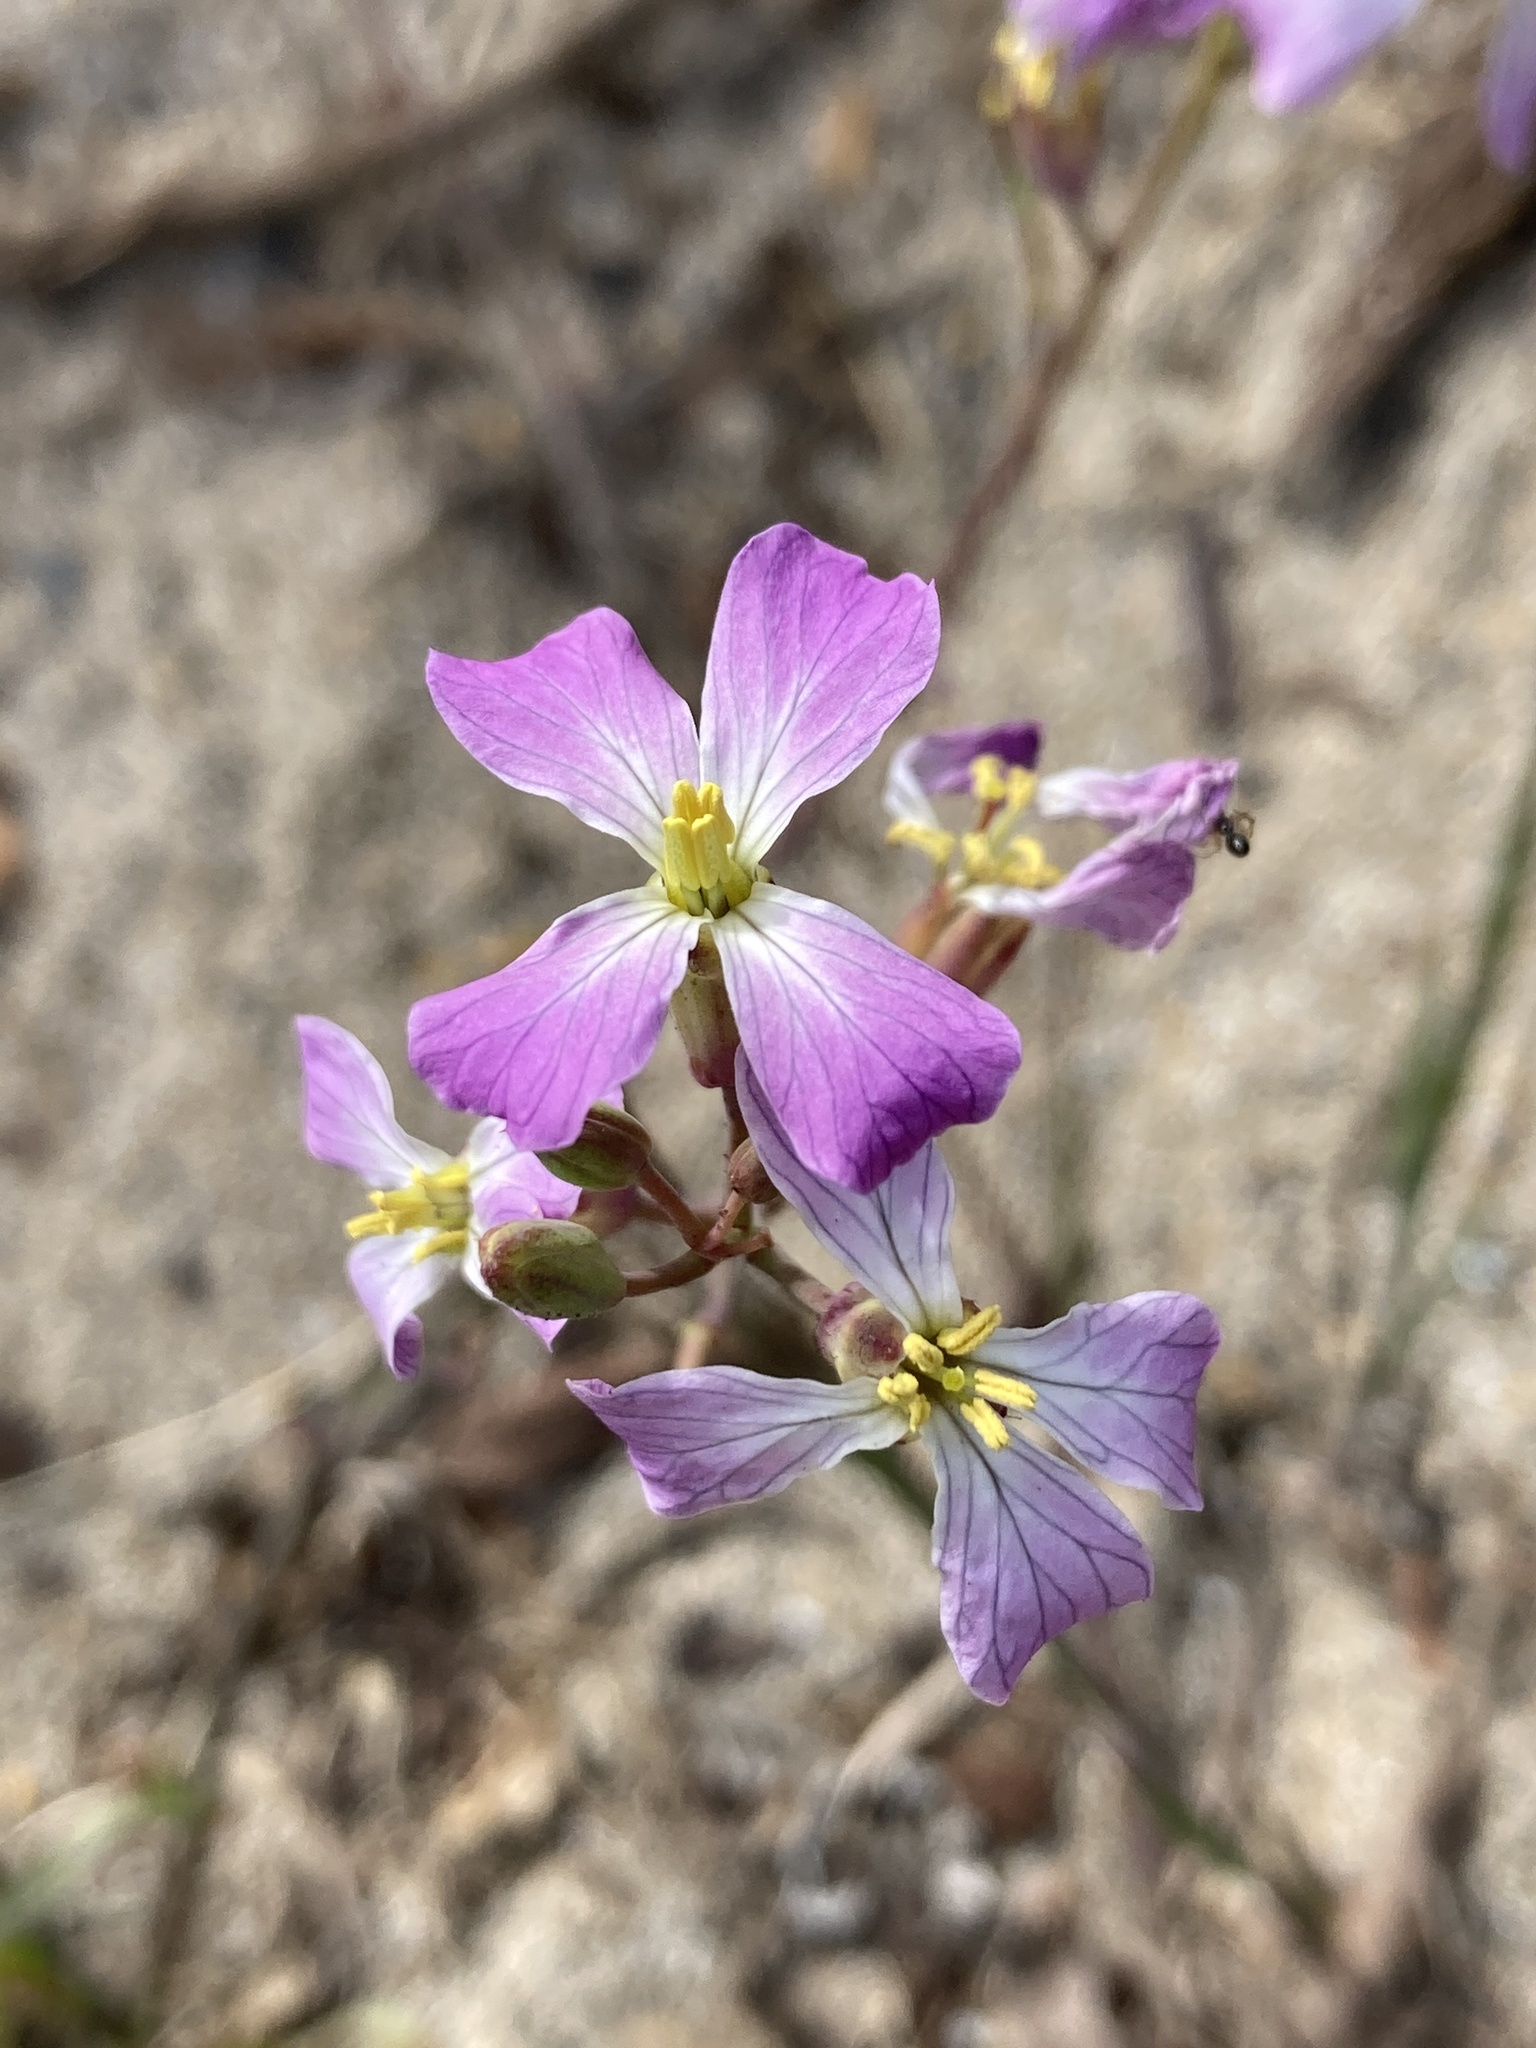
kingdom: Plantae
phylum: Tracheophyta
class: Magnoliopsida
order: Brassicales
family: Brassicaceae
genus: Raphanus
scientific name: Raphanus sativus
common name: Cultivated radish
